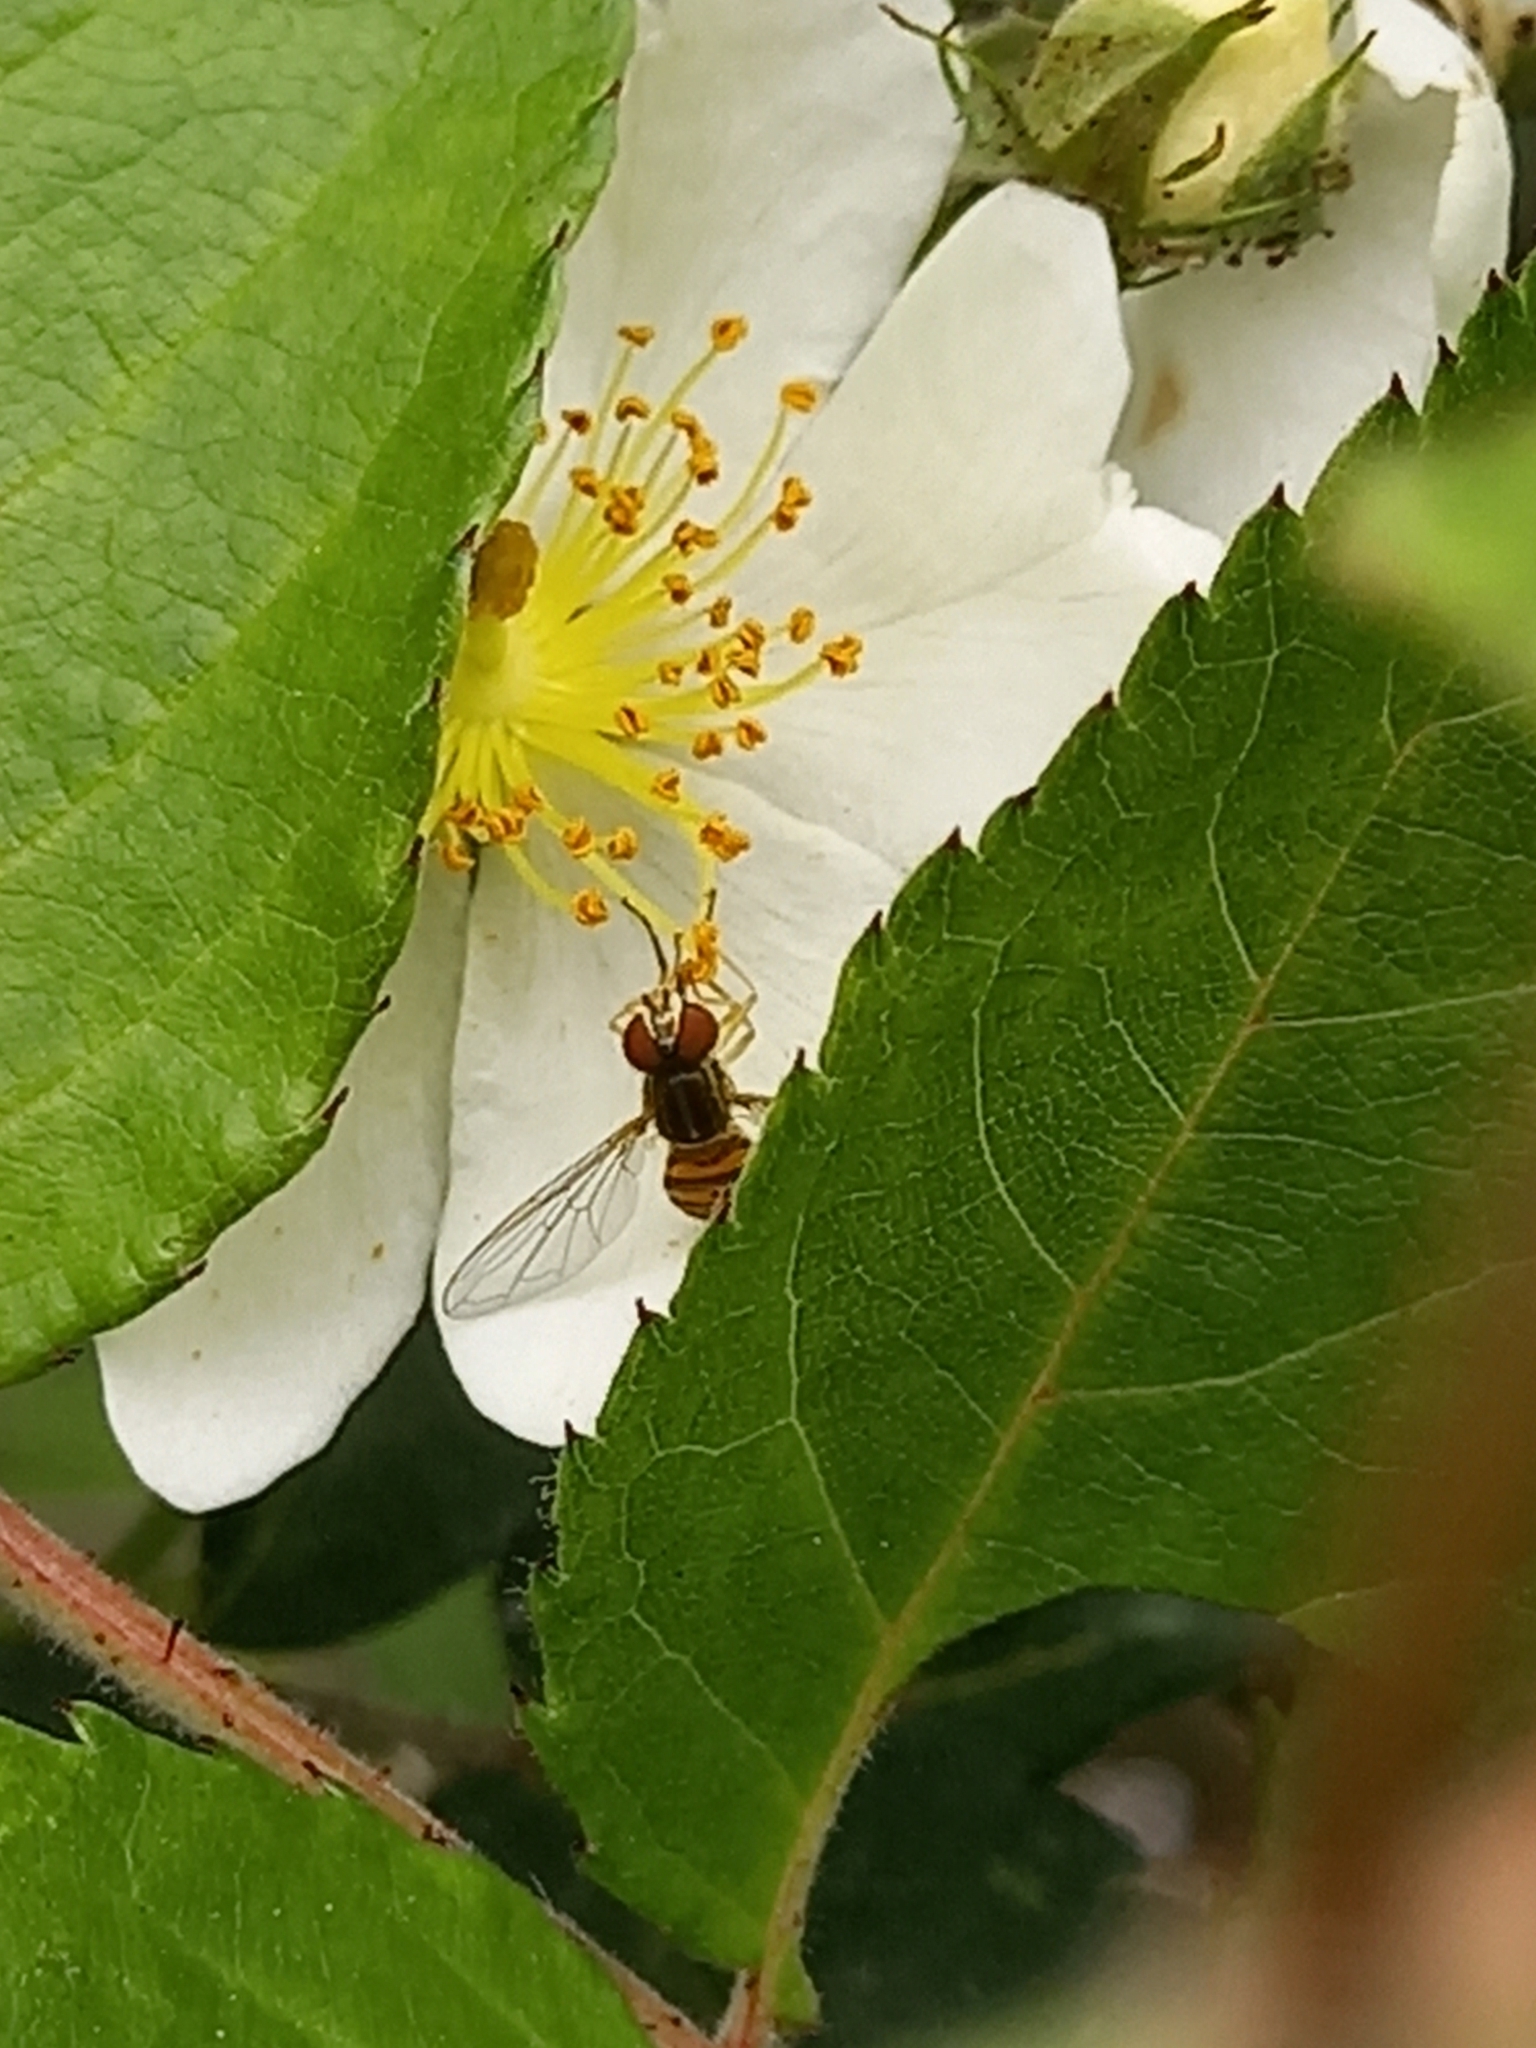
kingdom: Animalia
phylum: Arthropoda
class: Insecta
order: Diptera
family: Syrphidae
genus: Toxomerus
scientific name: Toxomerus
